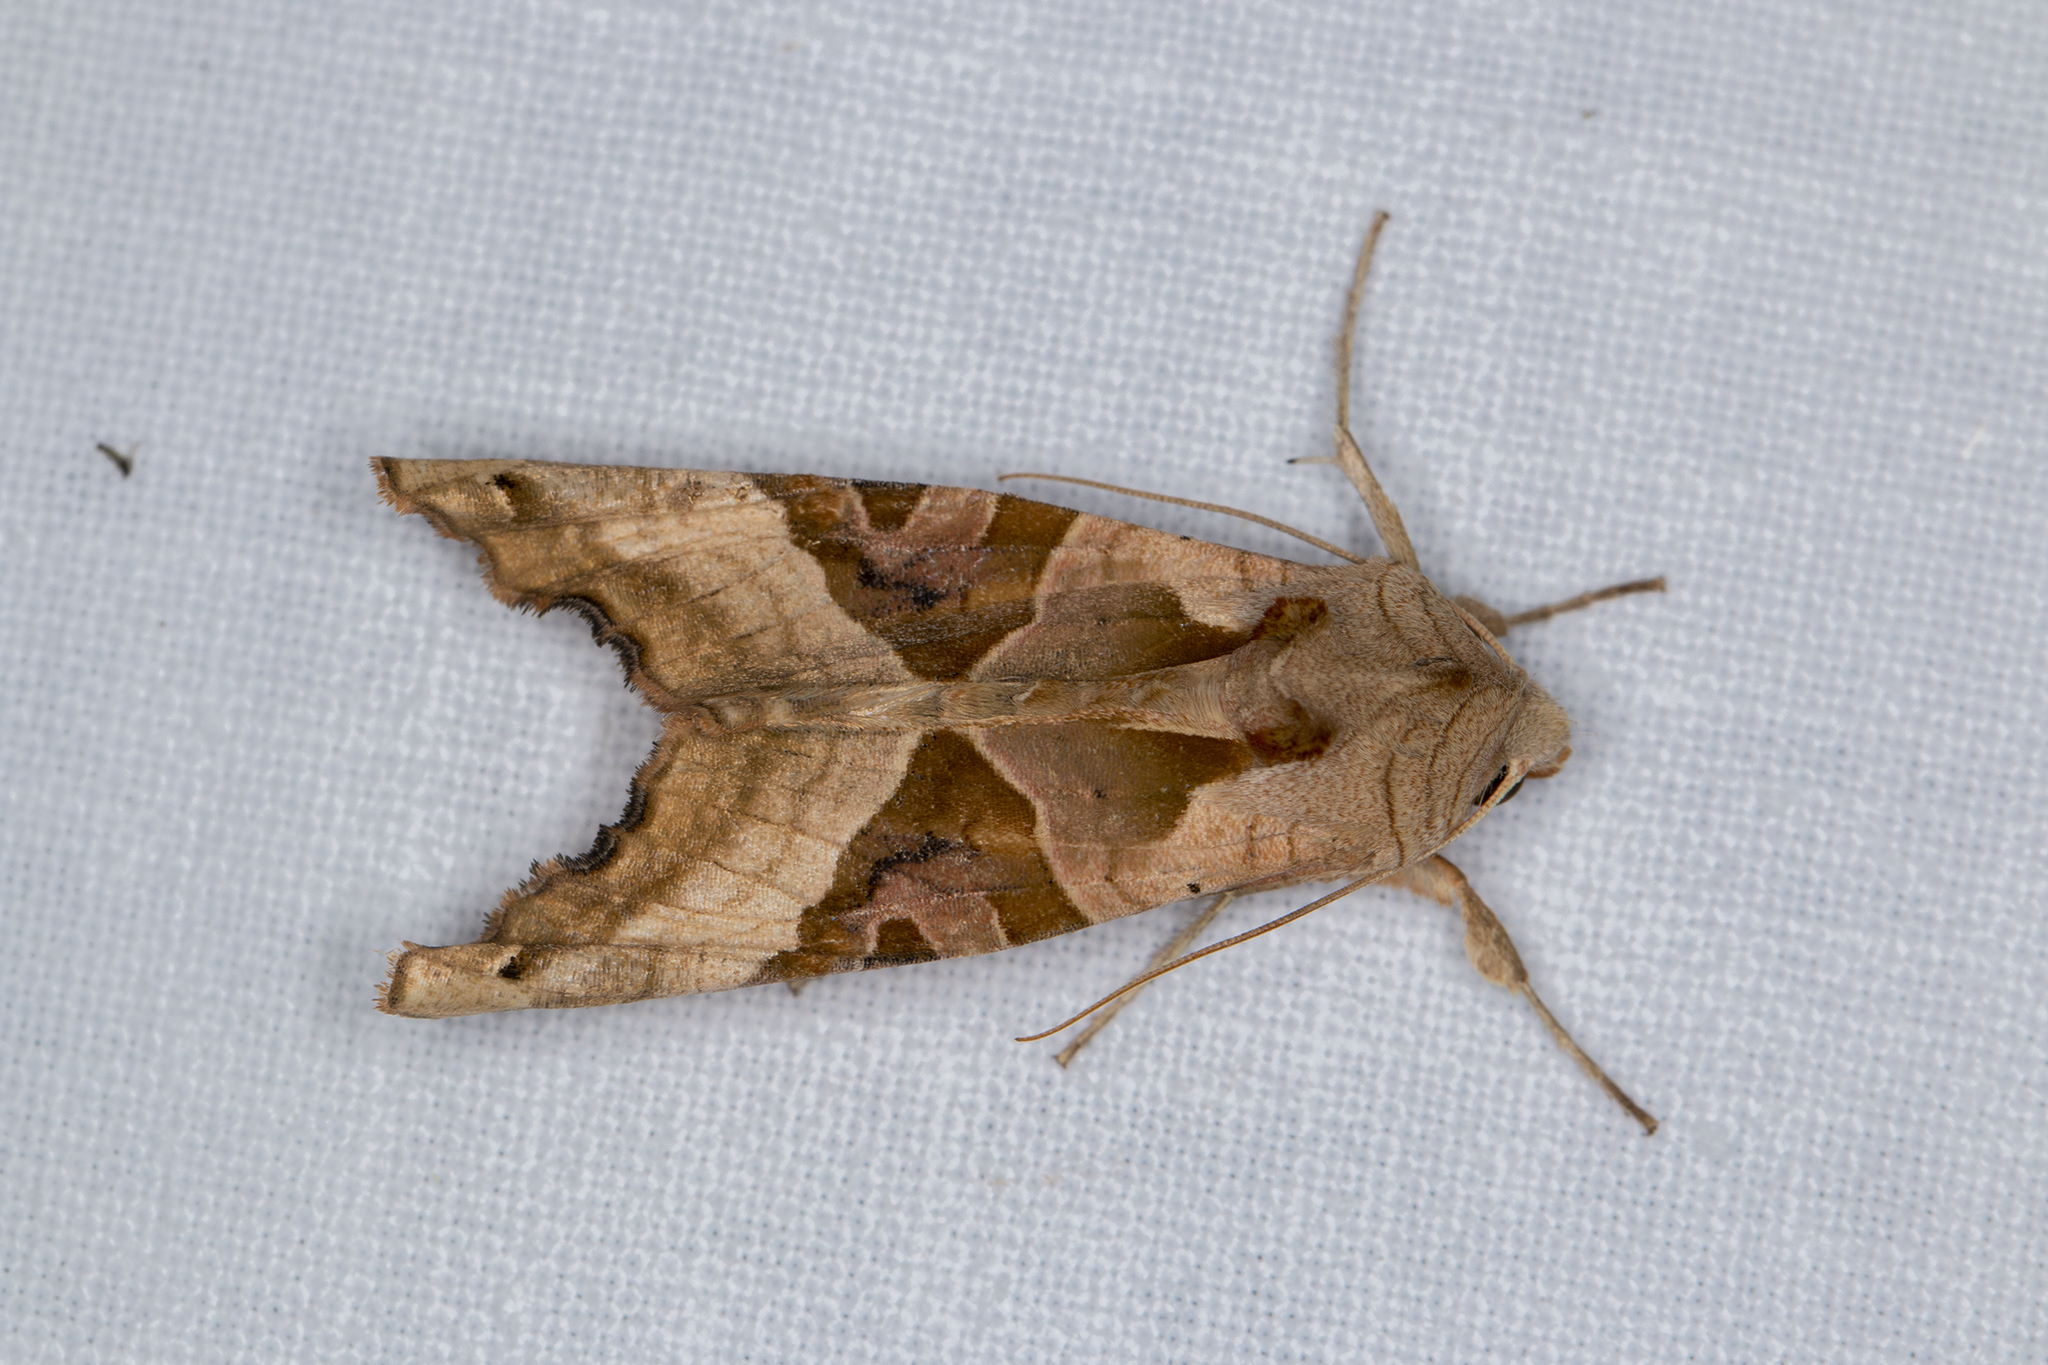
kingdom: Animalia
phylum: Arthropoda
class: Insecta
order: Lepidoptera
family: Noctuidae
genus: Phlogophora
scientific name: Phlogophora meticulosa
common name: Angle shades
